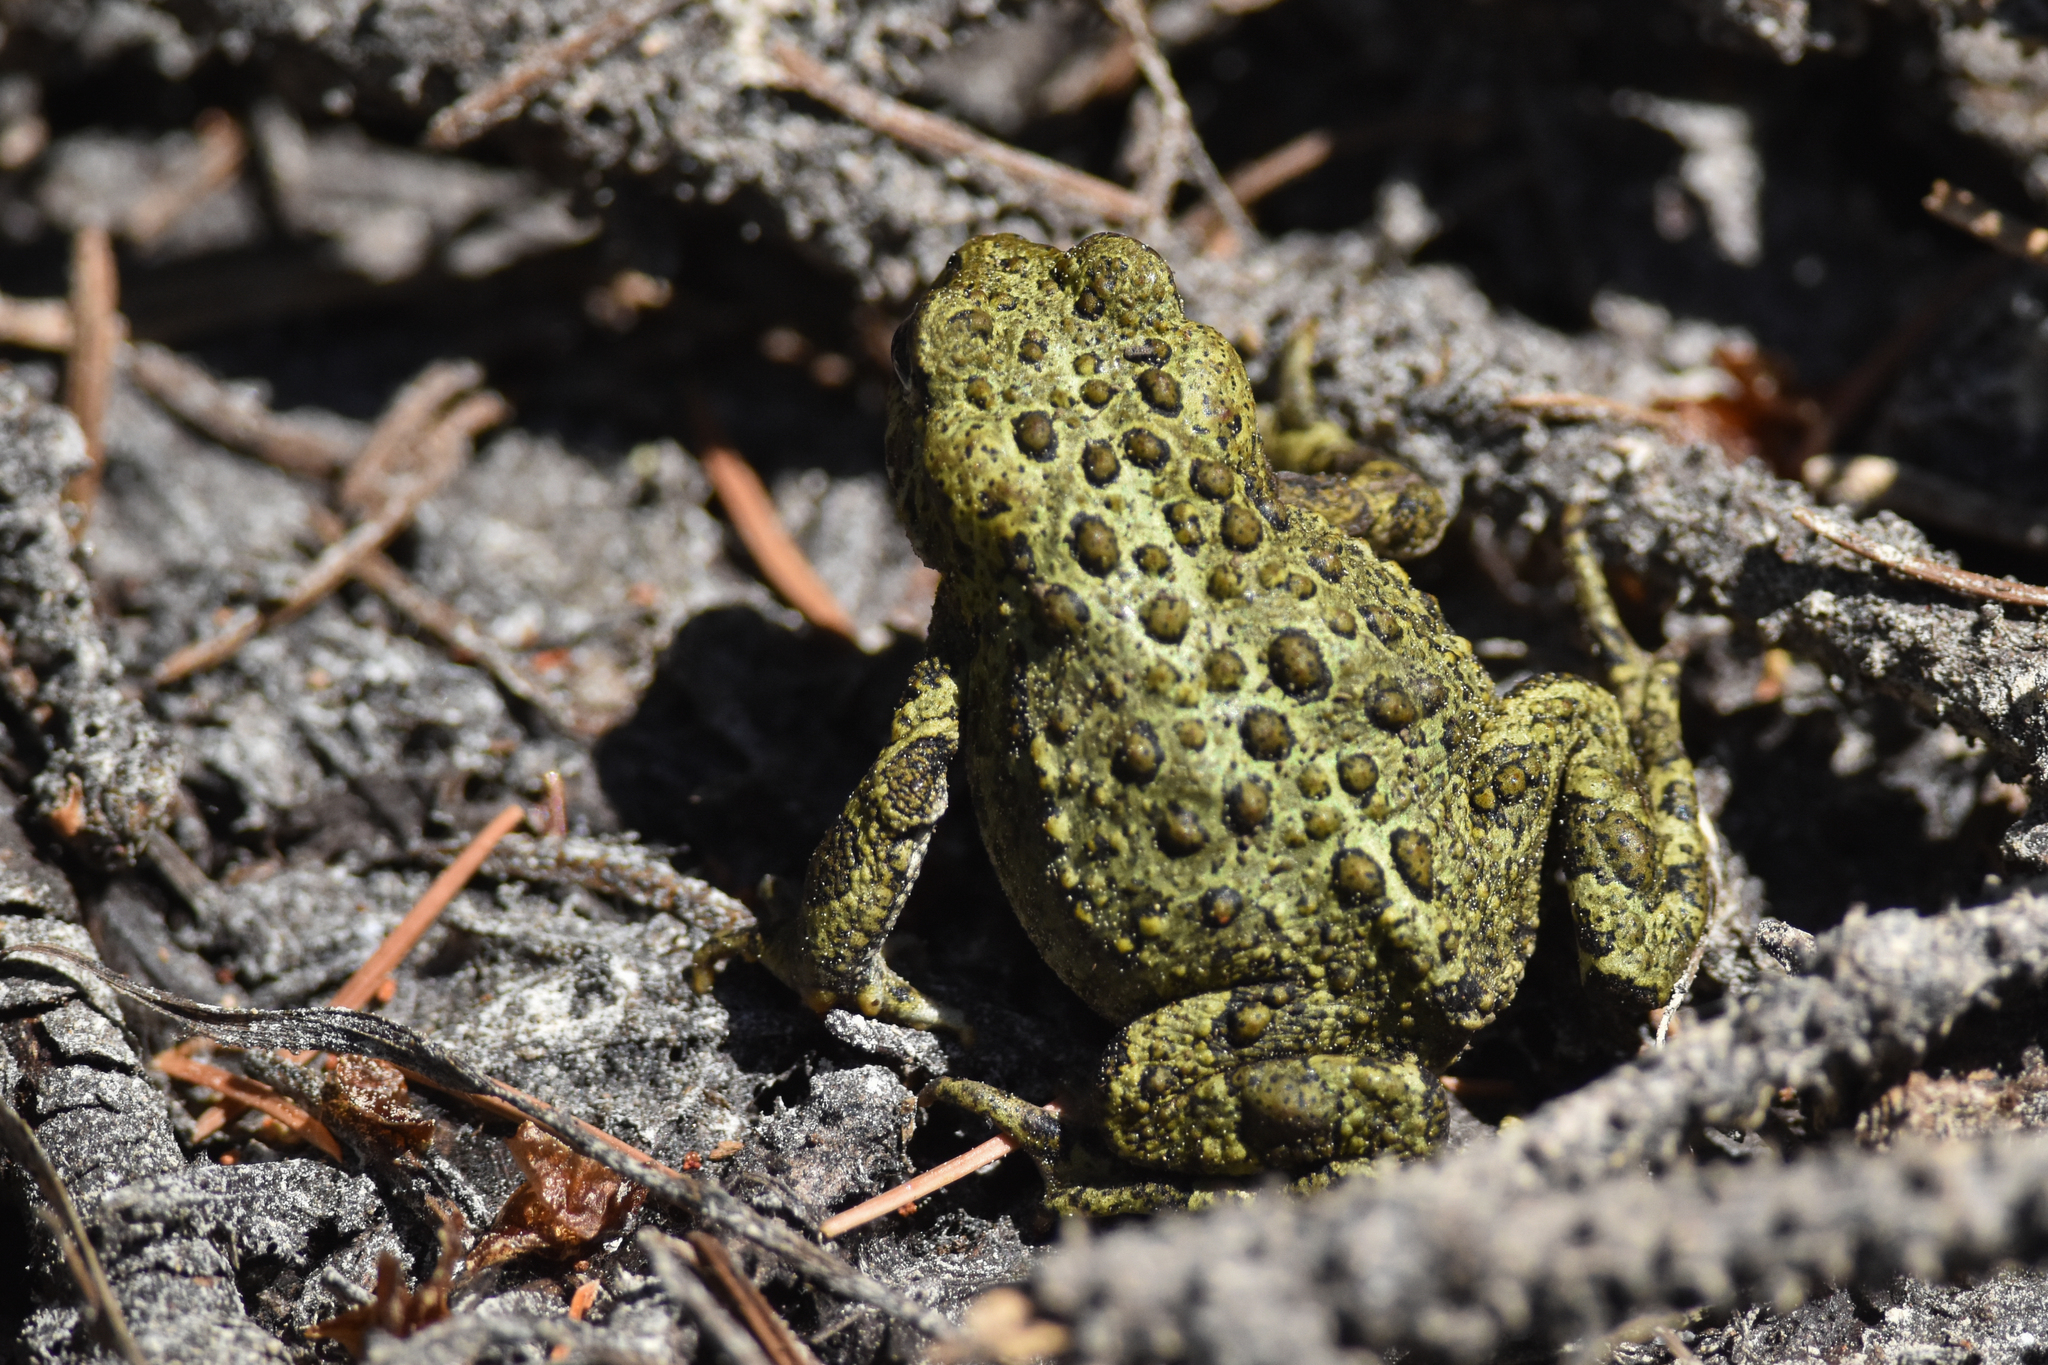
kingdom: Animalia
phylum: Chordata
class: Amphibia
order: Anura
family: Bufonidae
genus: Anaxyrus
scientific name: Anaxyrus boreas
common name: Western toad
